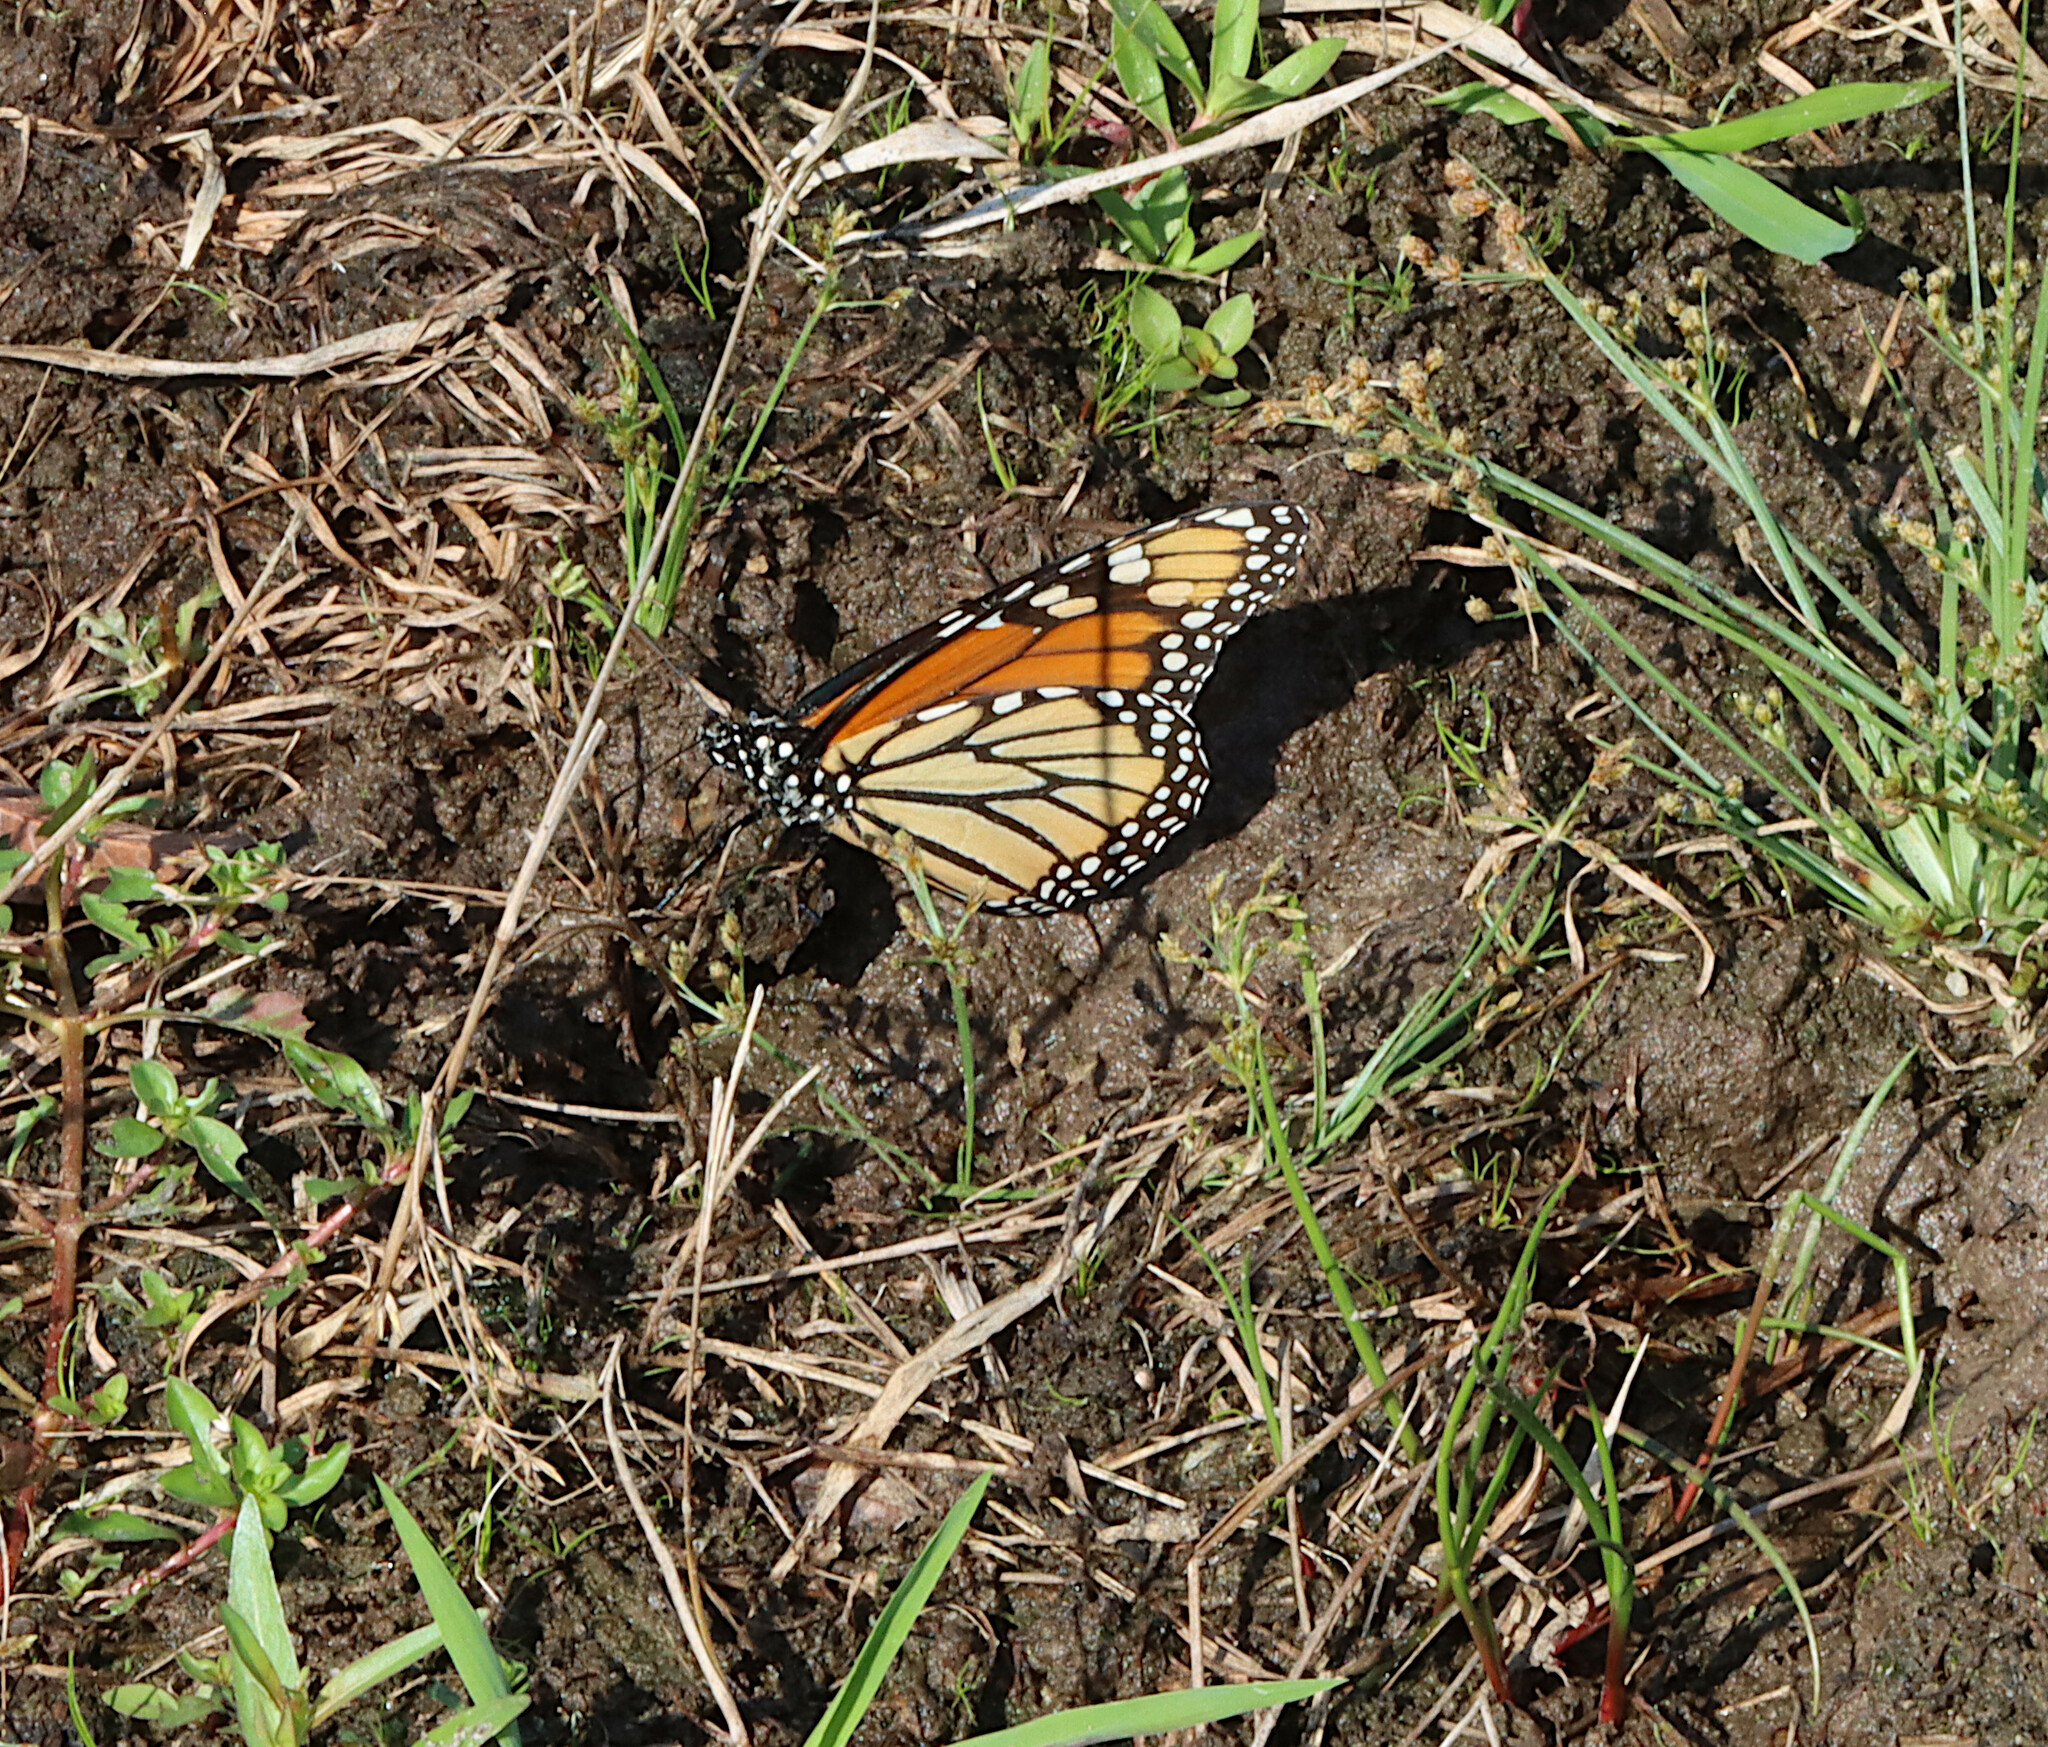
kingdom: Animalia
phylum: Arthropoda
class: Insecta
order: Lepidoptera
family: Nymphalidae
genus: Danaus
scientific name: Danaus plexippus
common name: Monarch
